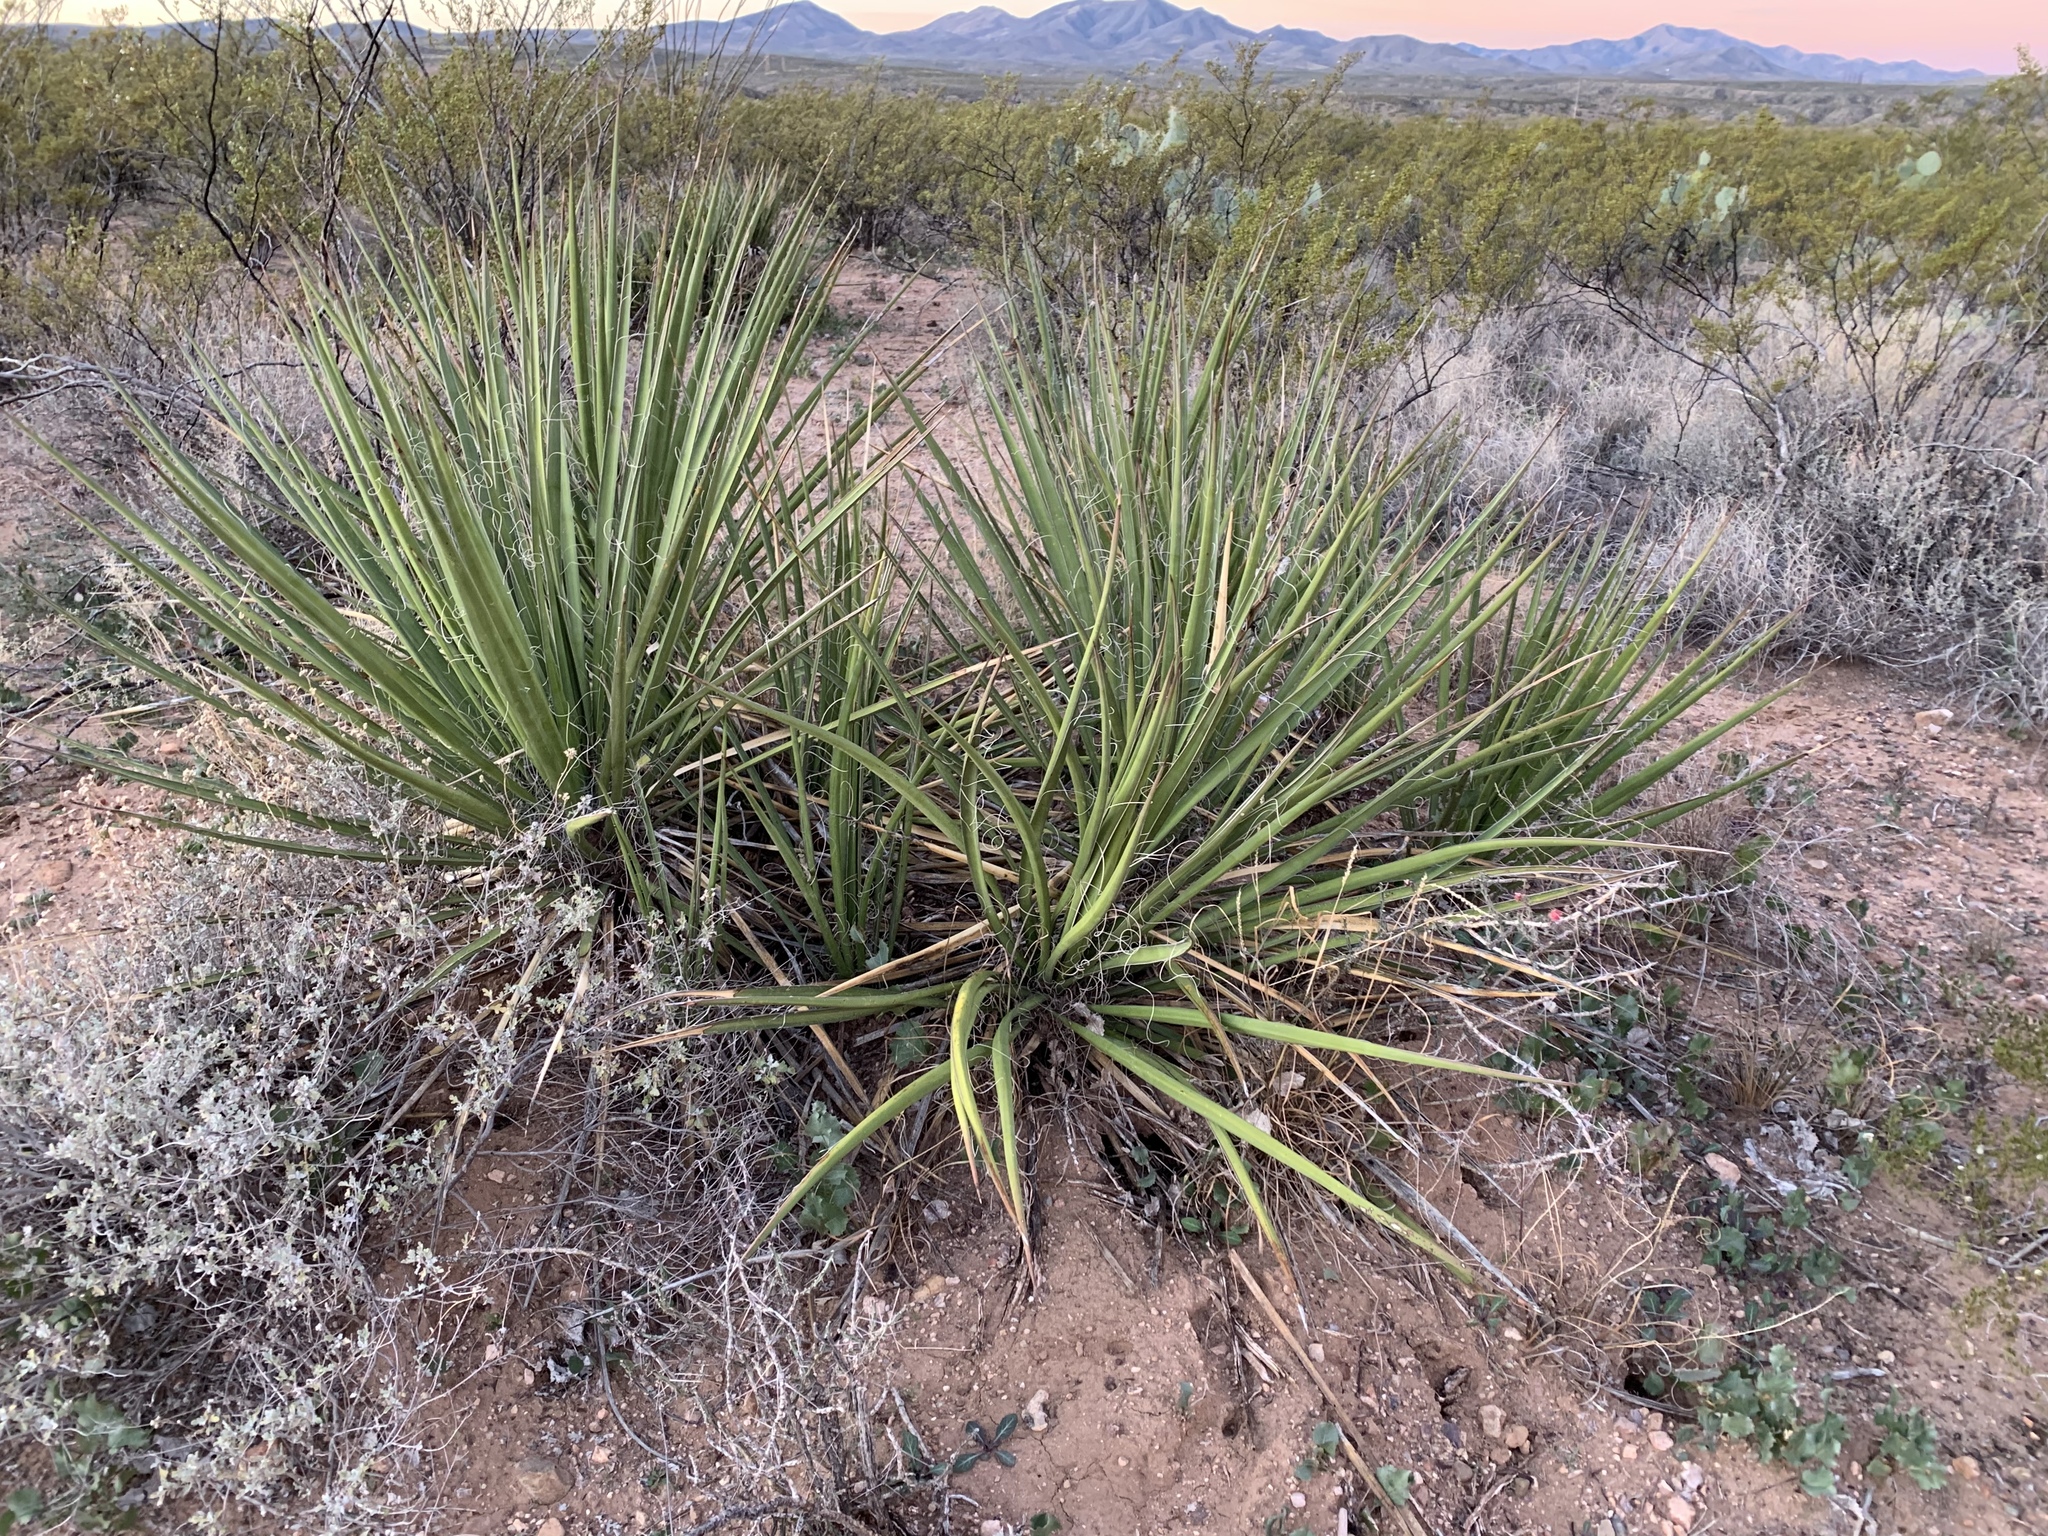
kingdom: Plantae
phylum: Tracheophyta
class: Liliopsida
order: Asparagales
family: Asparagaceae
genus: Yucca
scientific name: Yucca baccata
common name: Banana yucca
